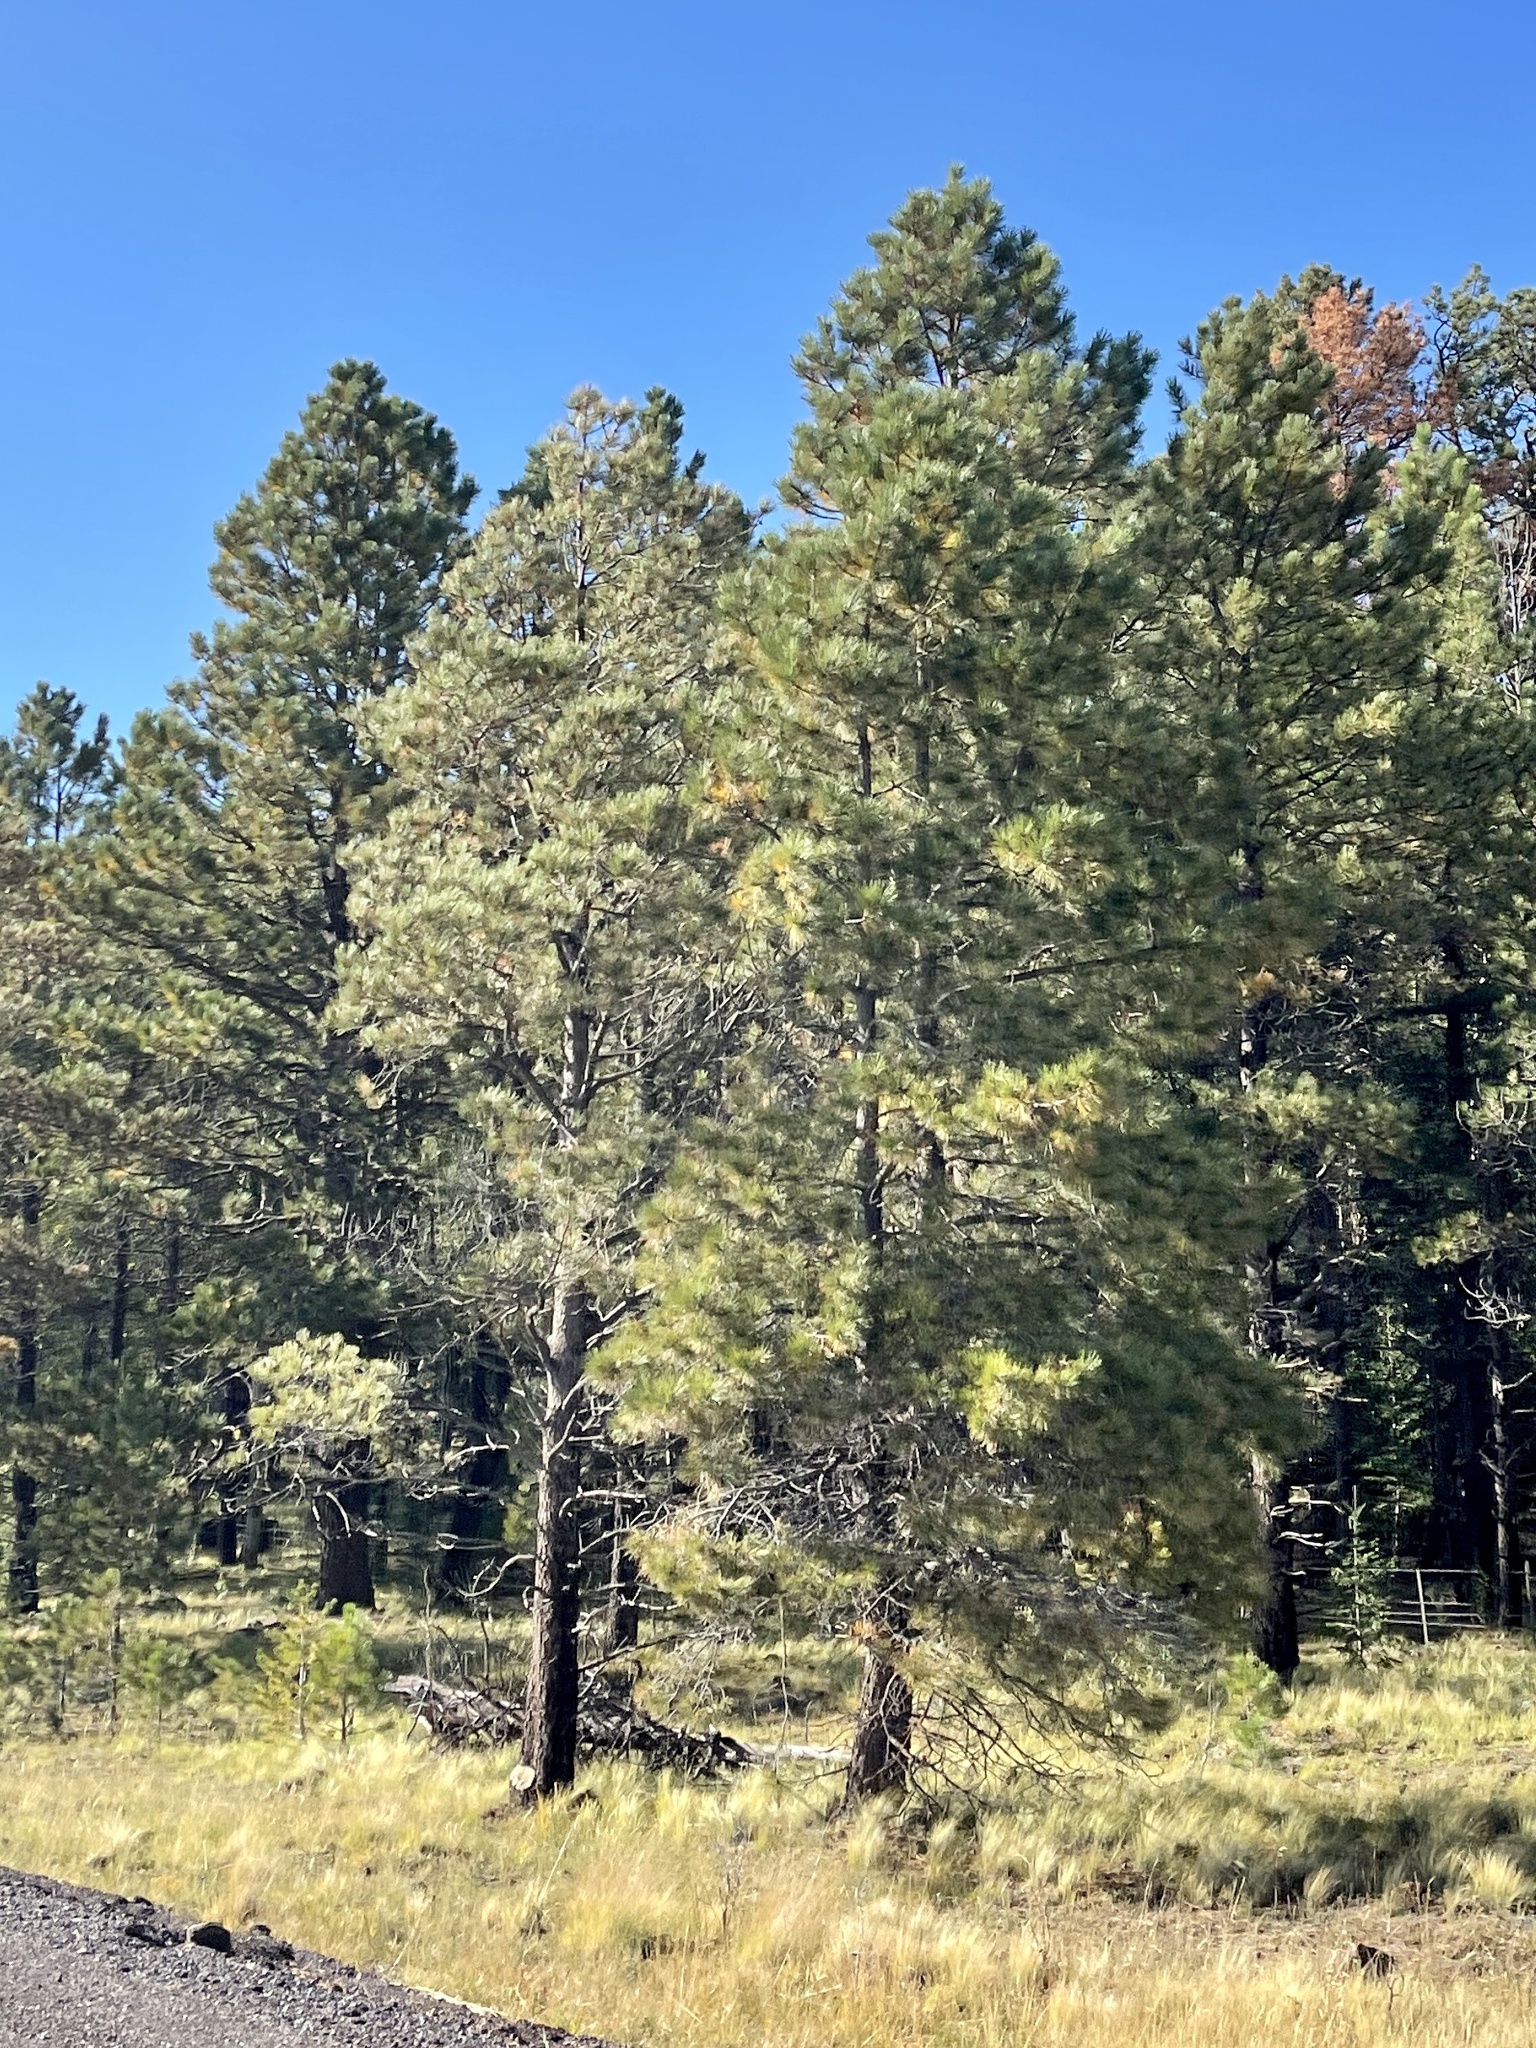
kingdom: Plantae
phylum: Tracheophyta
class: Pinopsida
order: Pinales
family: Pinaceae
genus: Pinus
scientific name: Pinus ponderosa
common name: Western yellow-pine
